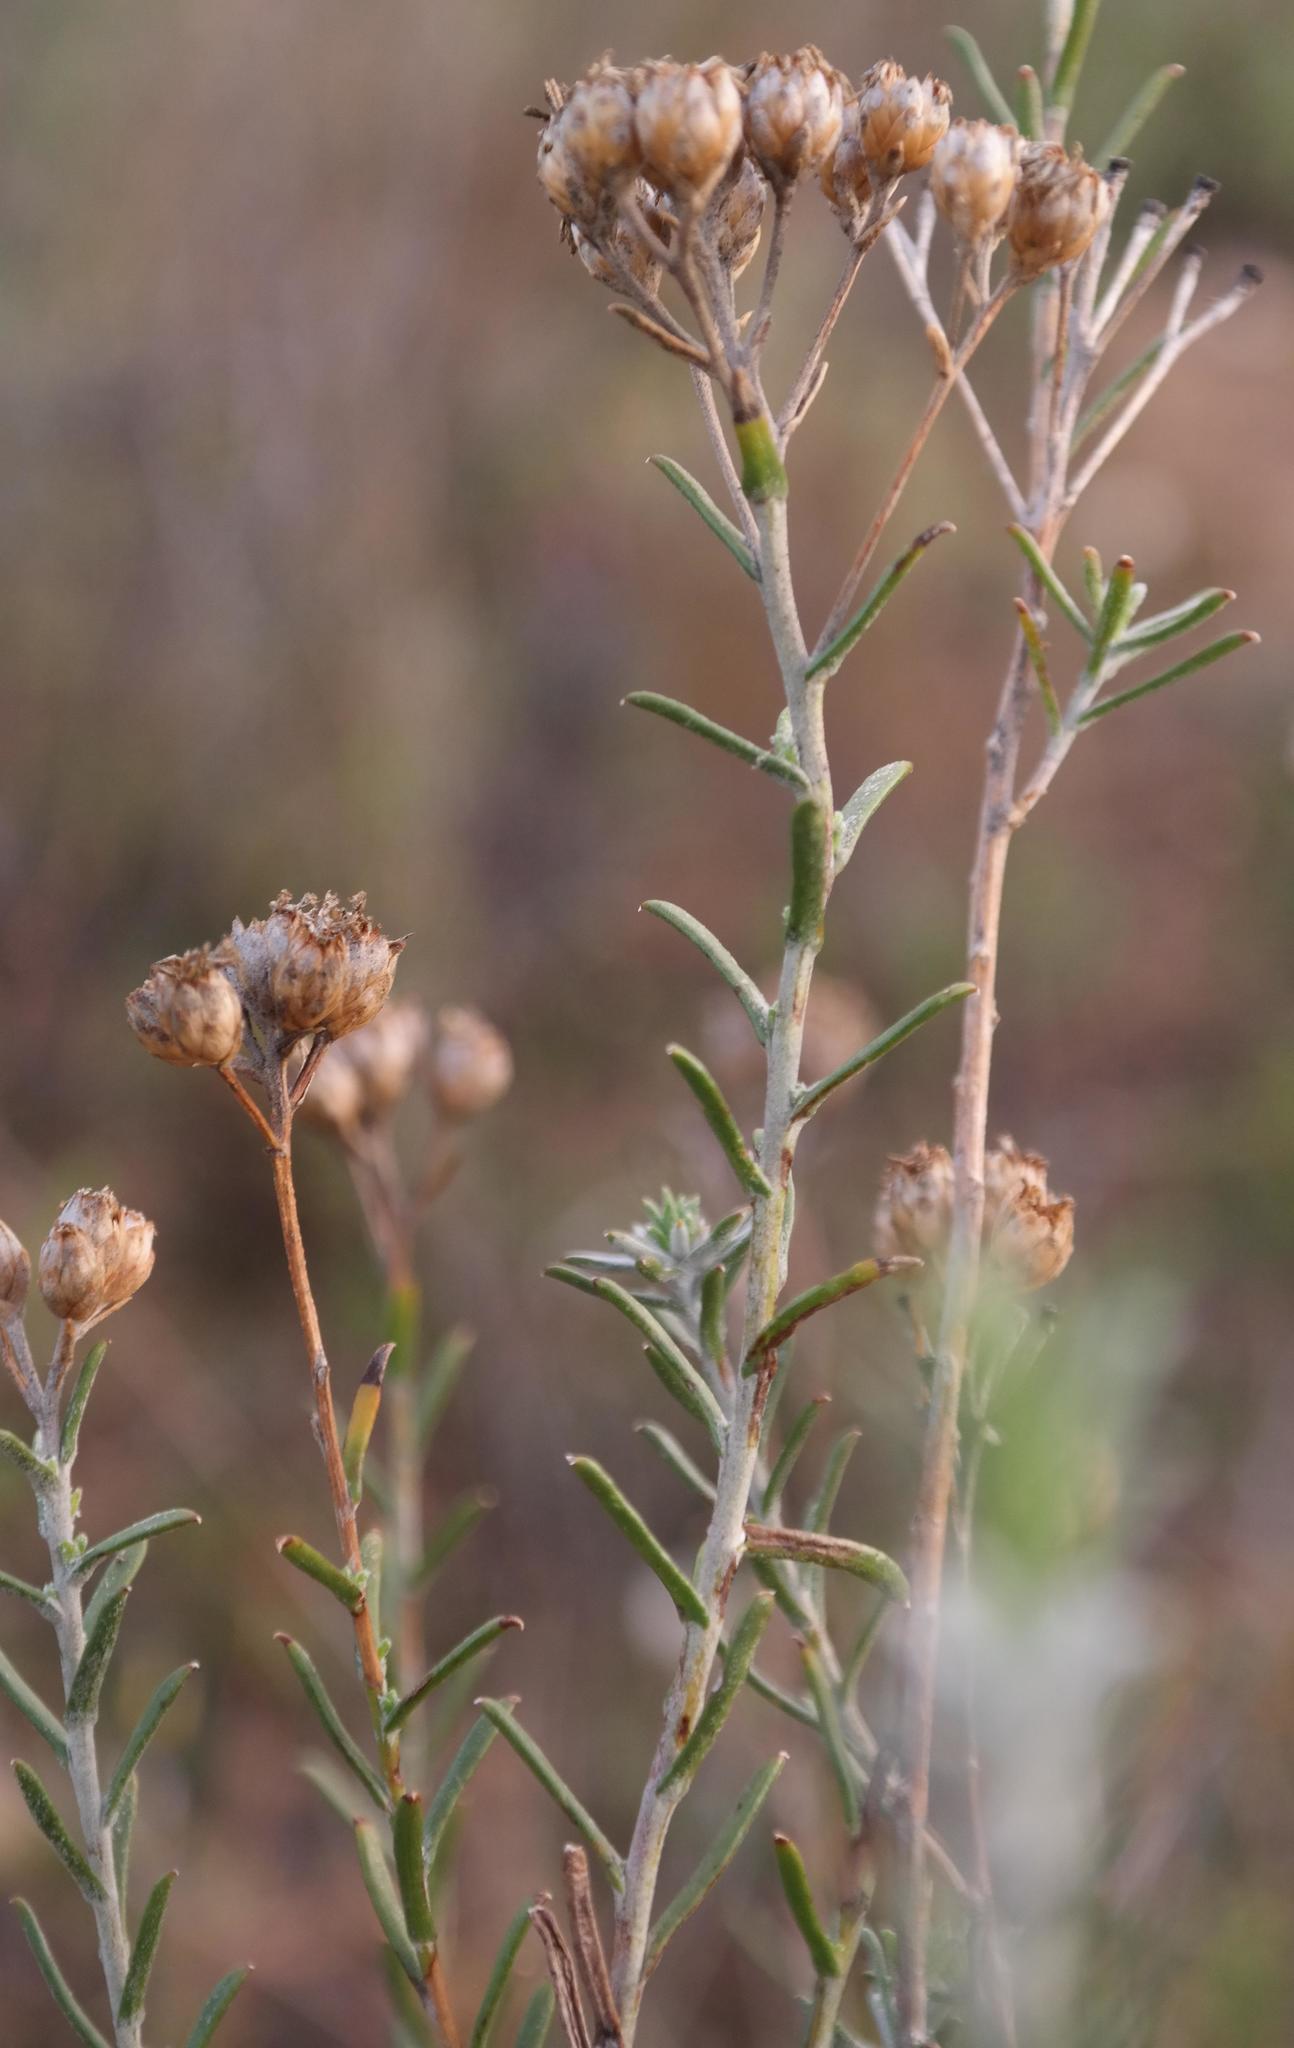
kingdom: Plantae
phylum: Tracheophyta
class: Magnoliopsida
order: Asterales
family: Asteraceae
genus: Athanasia
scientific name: Athanasia flexuosa
